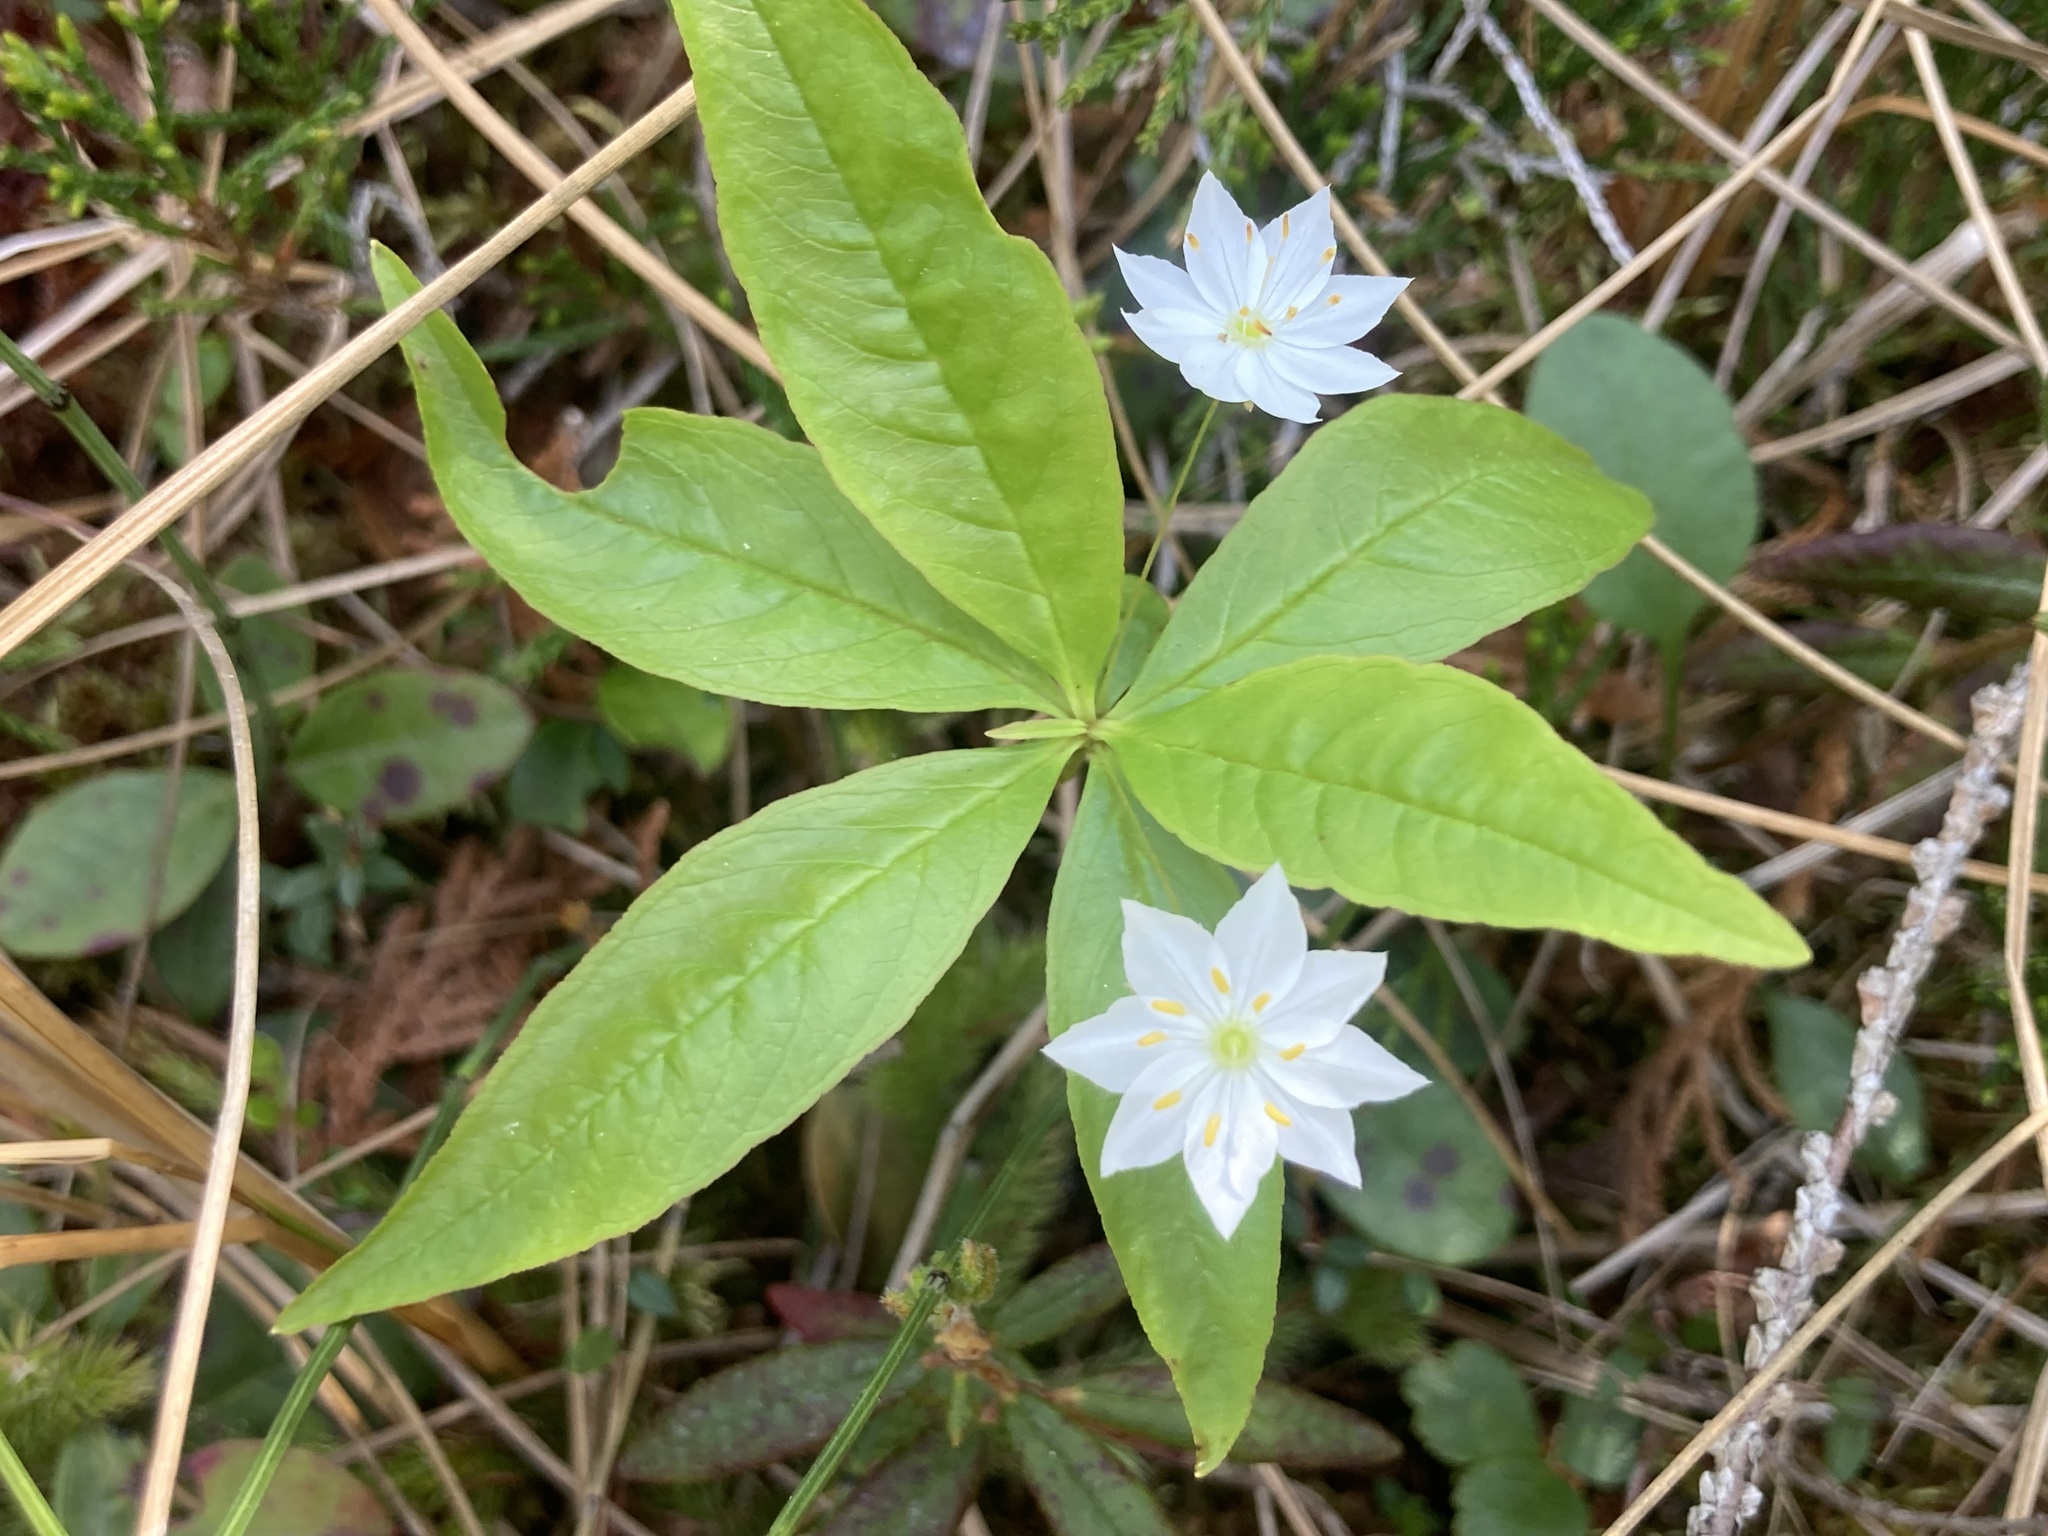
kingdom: Plantae
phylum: Tracheophyta
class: Magnoliopsida
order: Ericales
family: Primulaceae
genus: Lysimachia
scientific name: Lysimachia borealis
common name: American starflower
